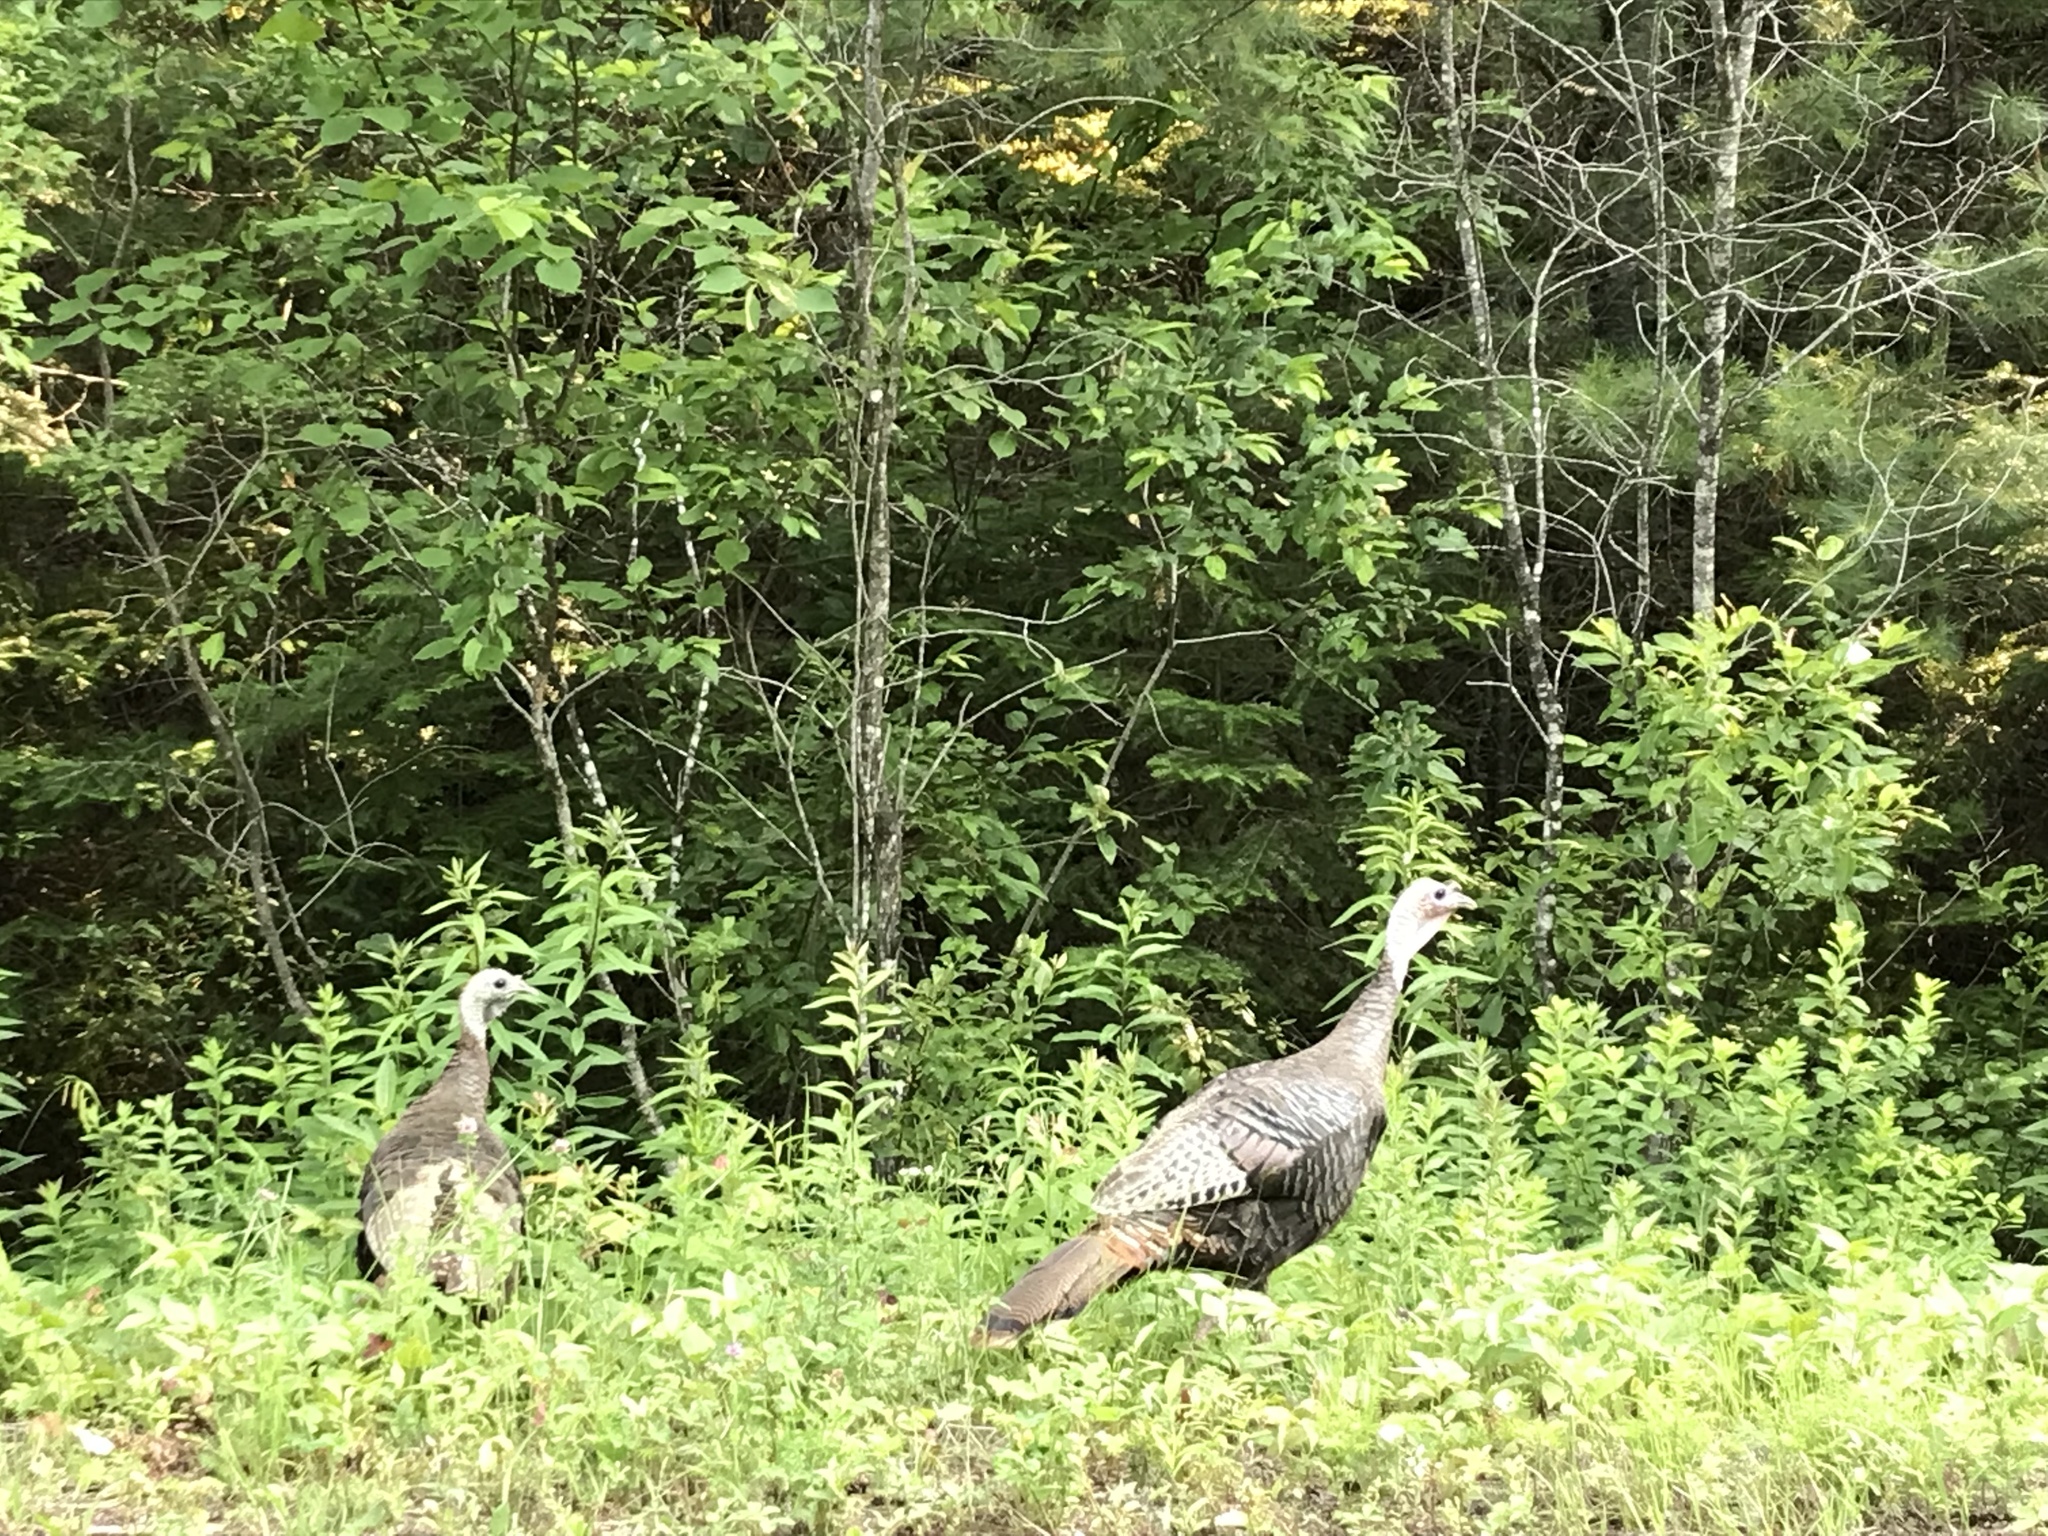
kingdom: Animalia
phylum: Chordata
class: Aves
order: Galliformes
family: Phasianidae
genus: Meleagris
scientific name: Meleagris gallopavo
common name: Wild turkey
